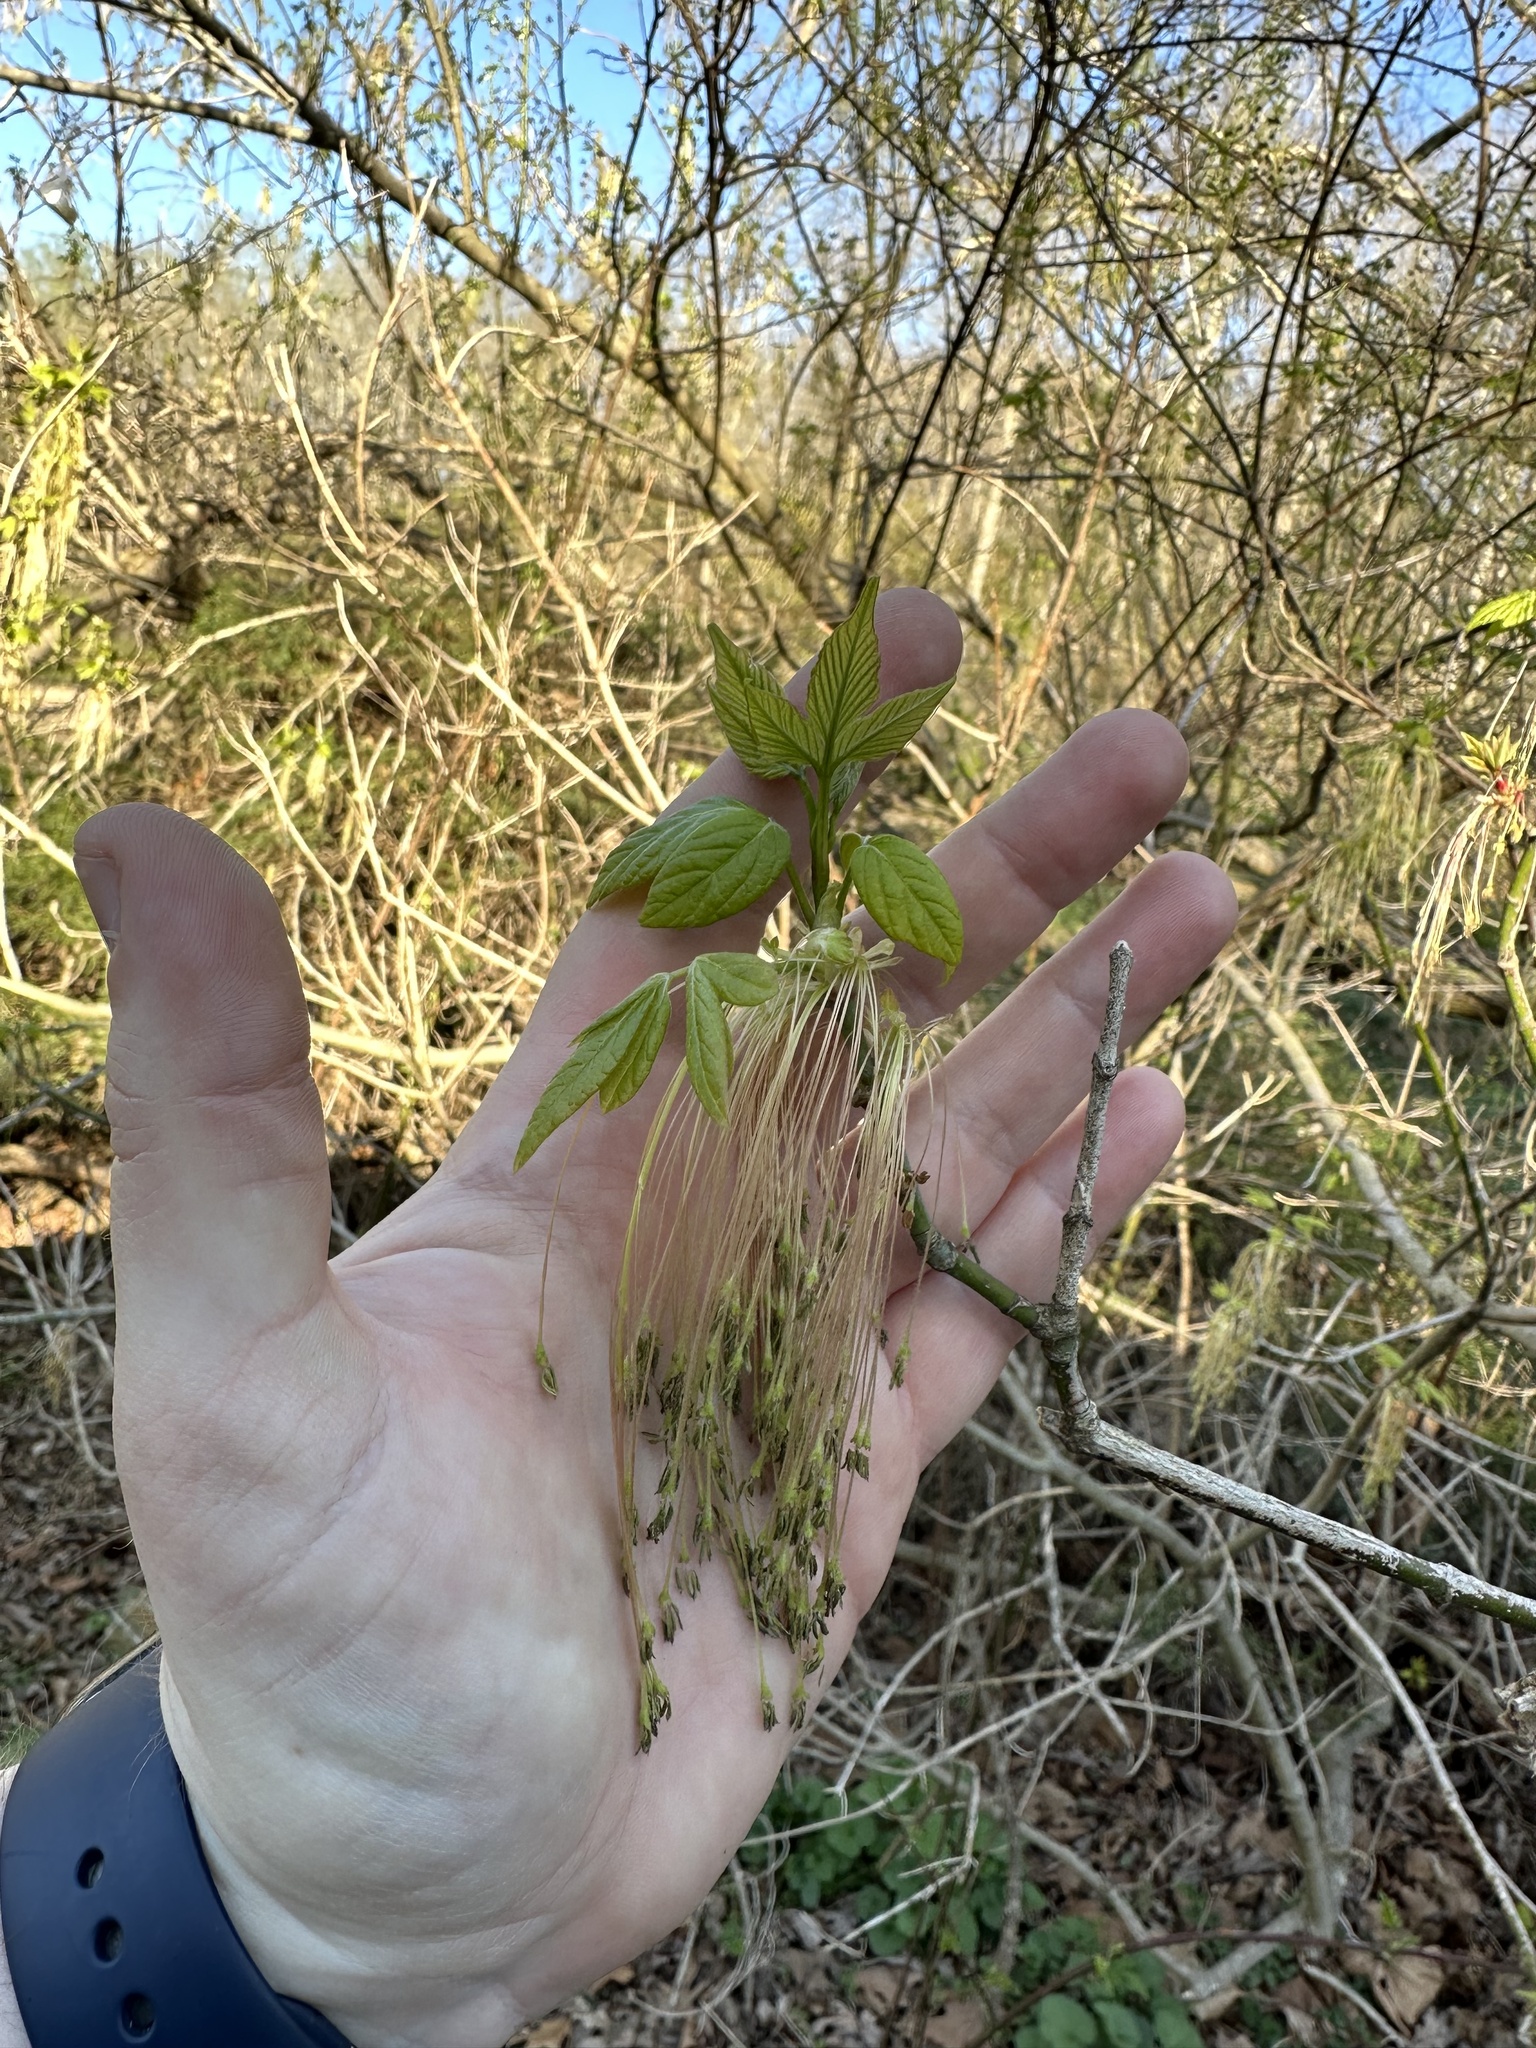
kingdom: Plantae
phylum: Tracheophyta
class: Magnoliopsida
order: Sapindales
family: Sapindaceae
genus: Acer
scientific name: Acer negundo
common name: Ashleaf maple
